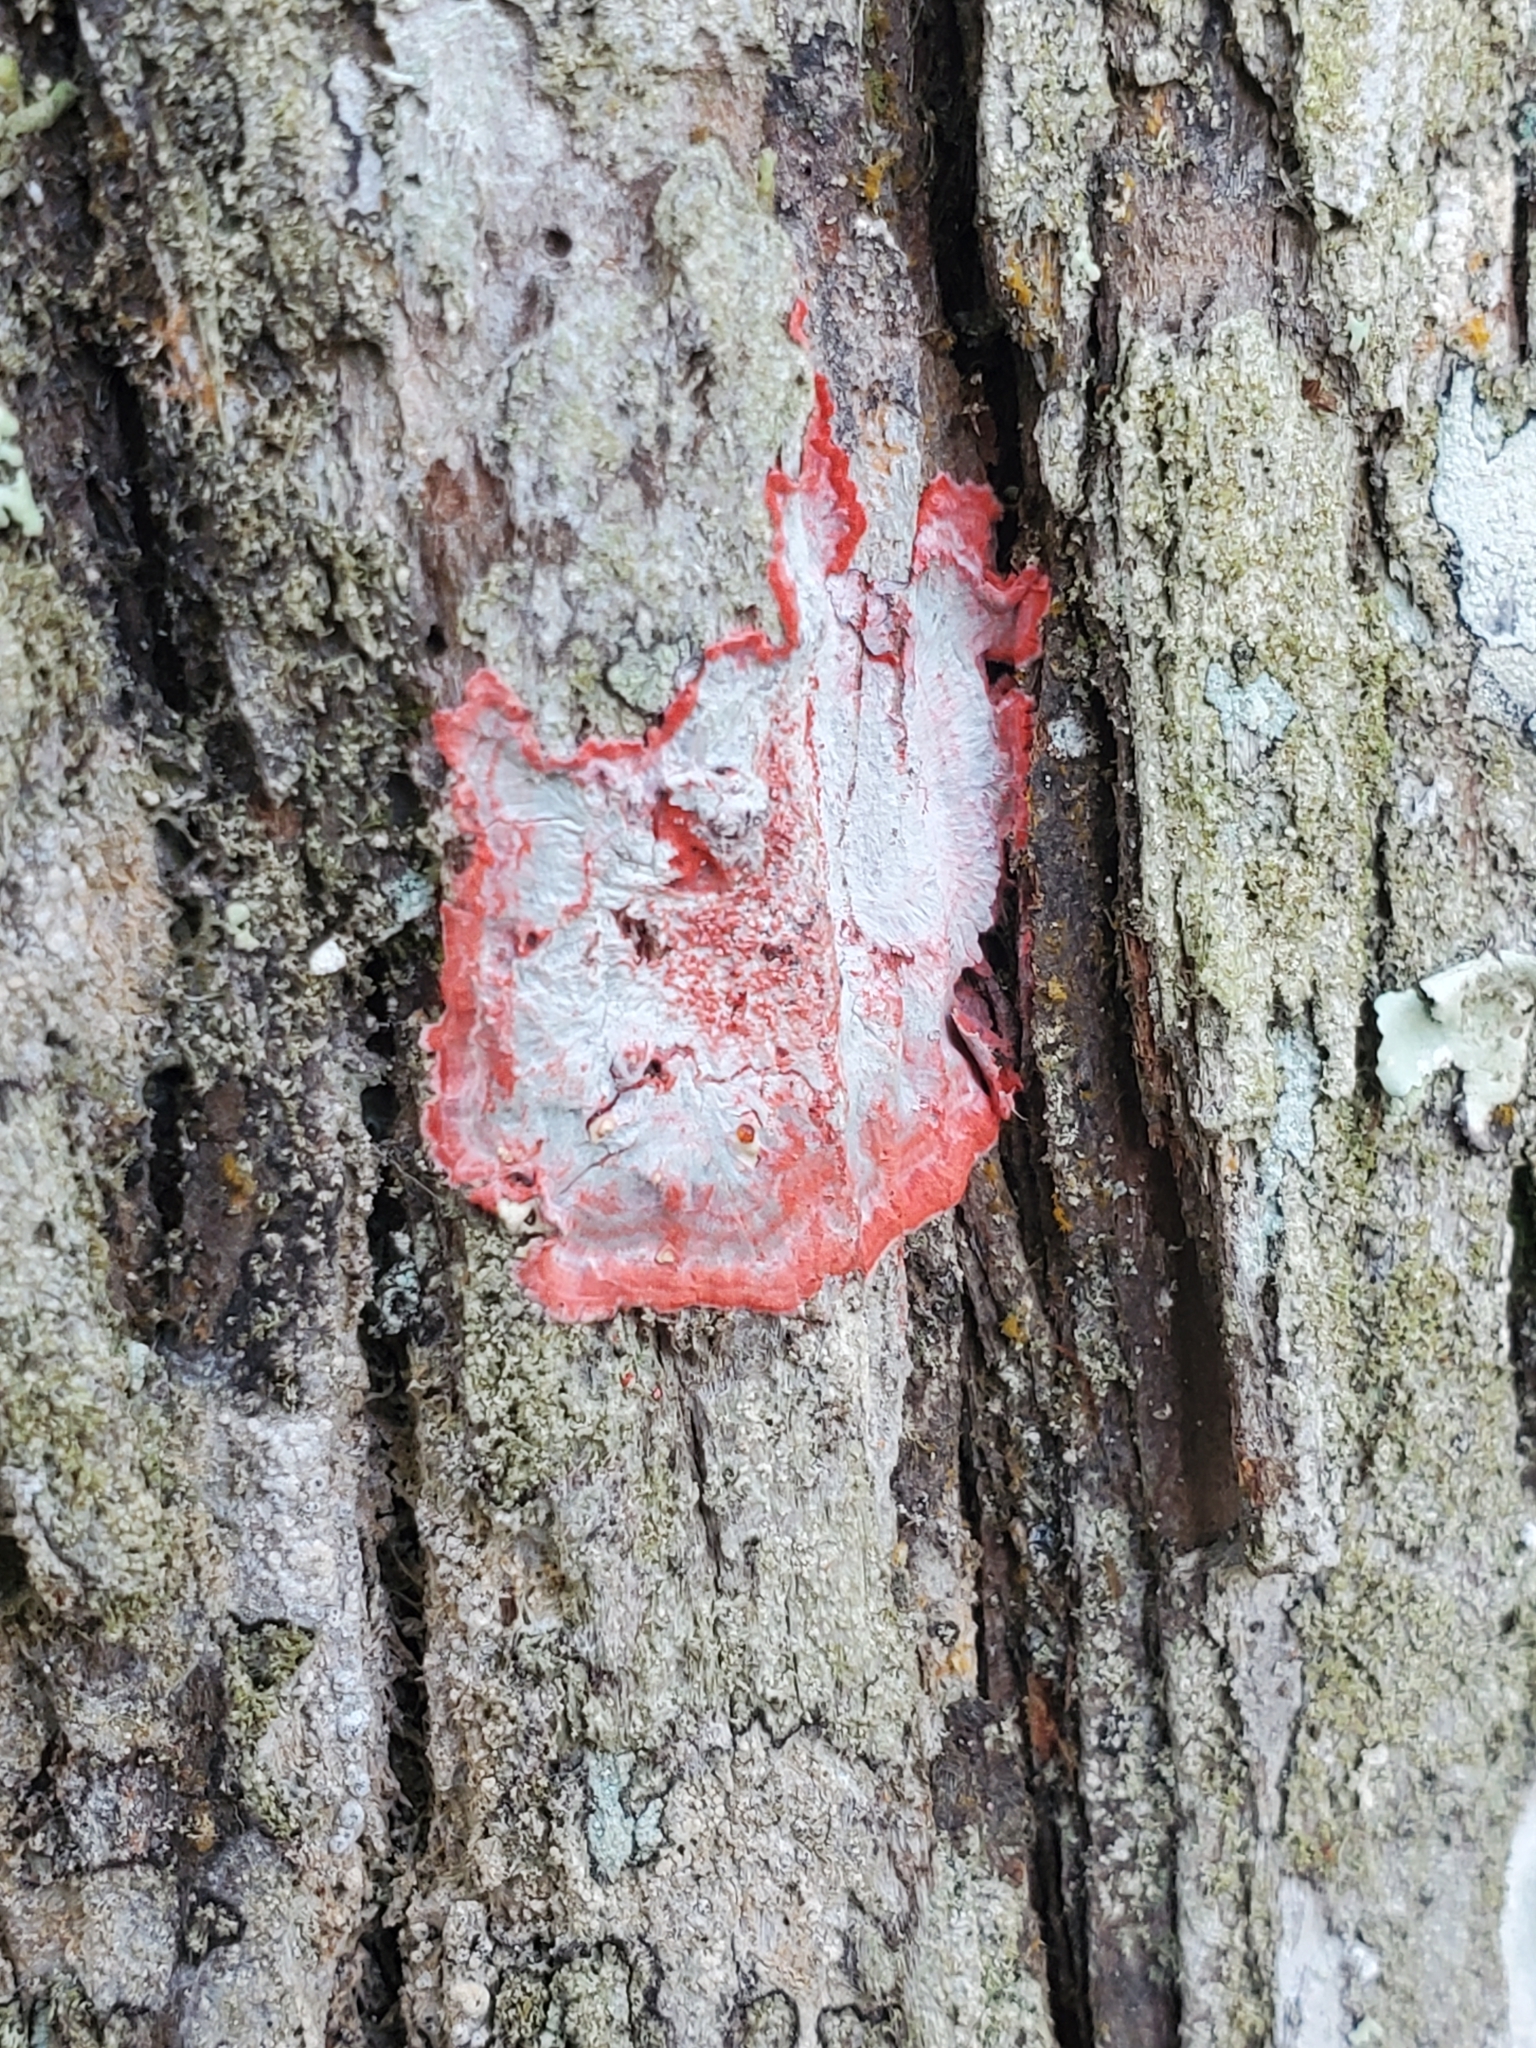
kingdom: Fungi
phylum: Ascomycota
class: Arthoniomycetes
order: Arthoniales
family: Arthoniaceae
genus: Herpothallon
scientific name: Herpothallon rubrocinctum
